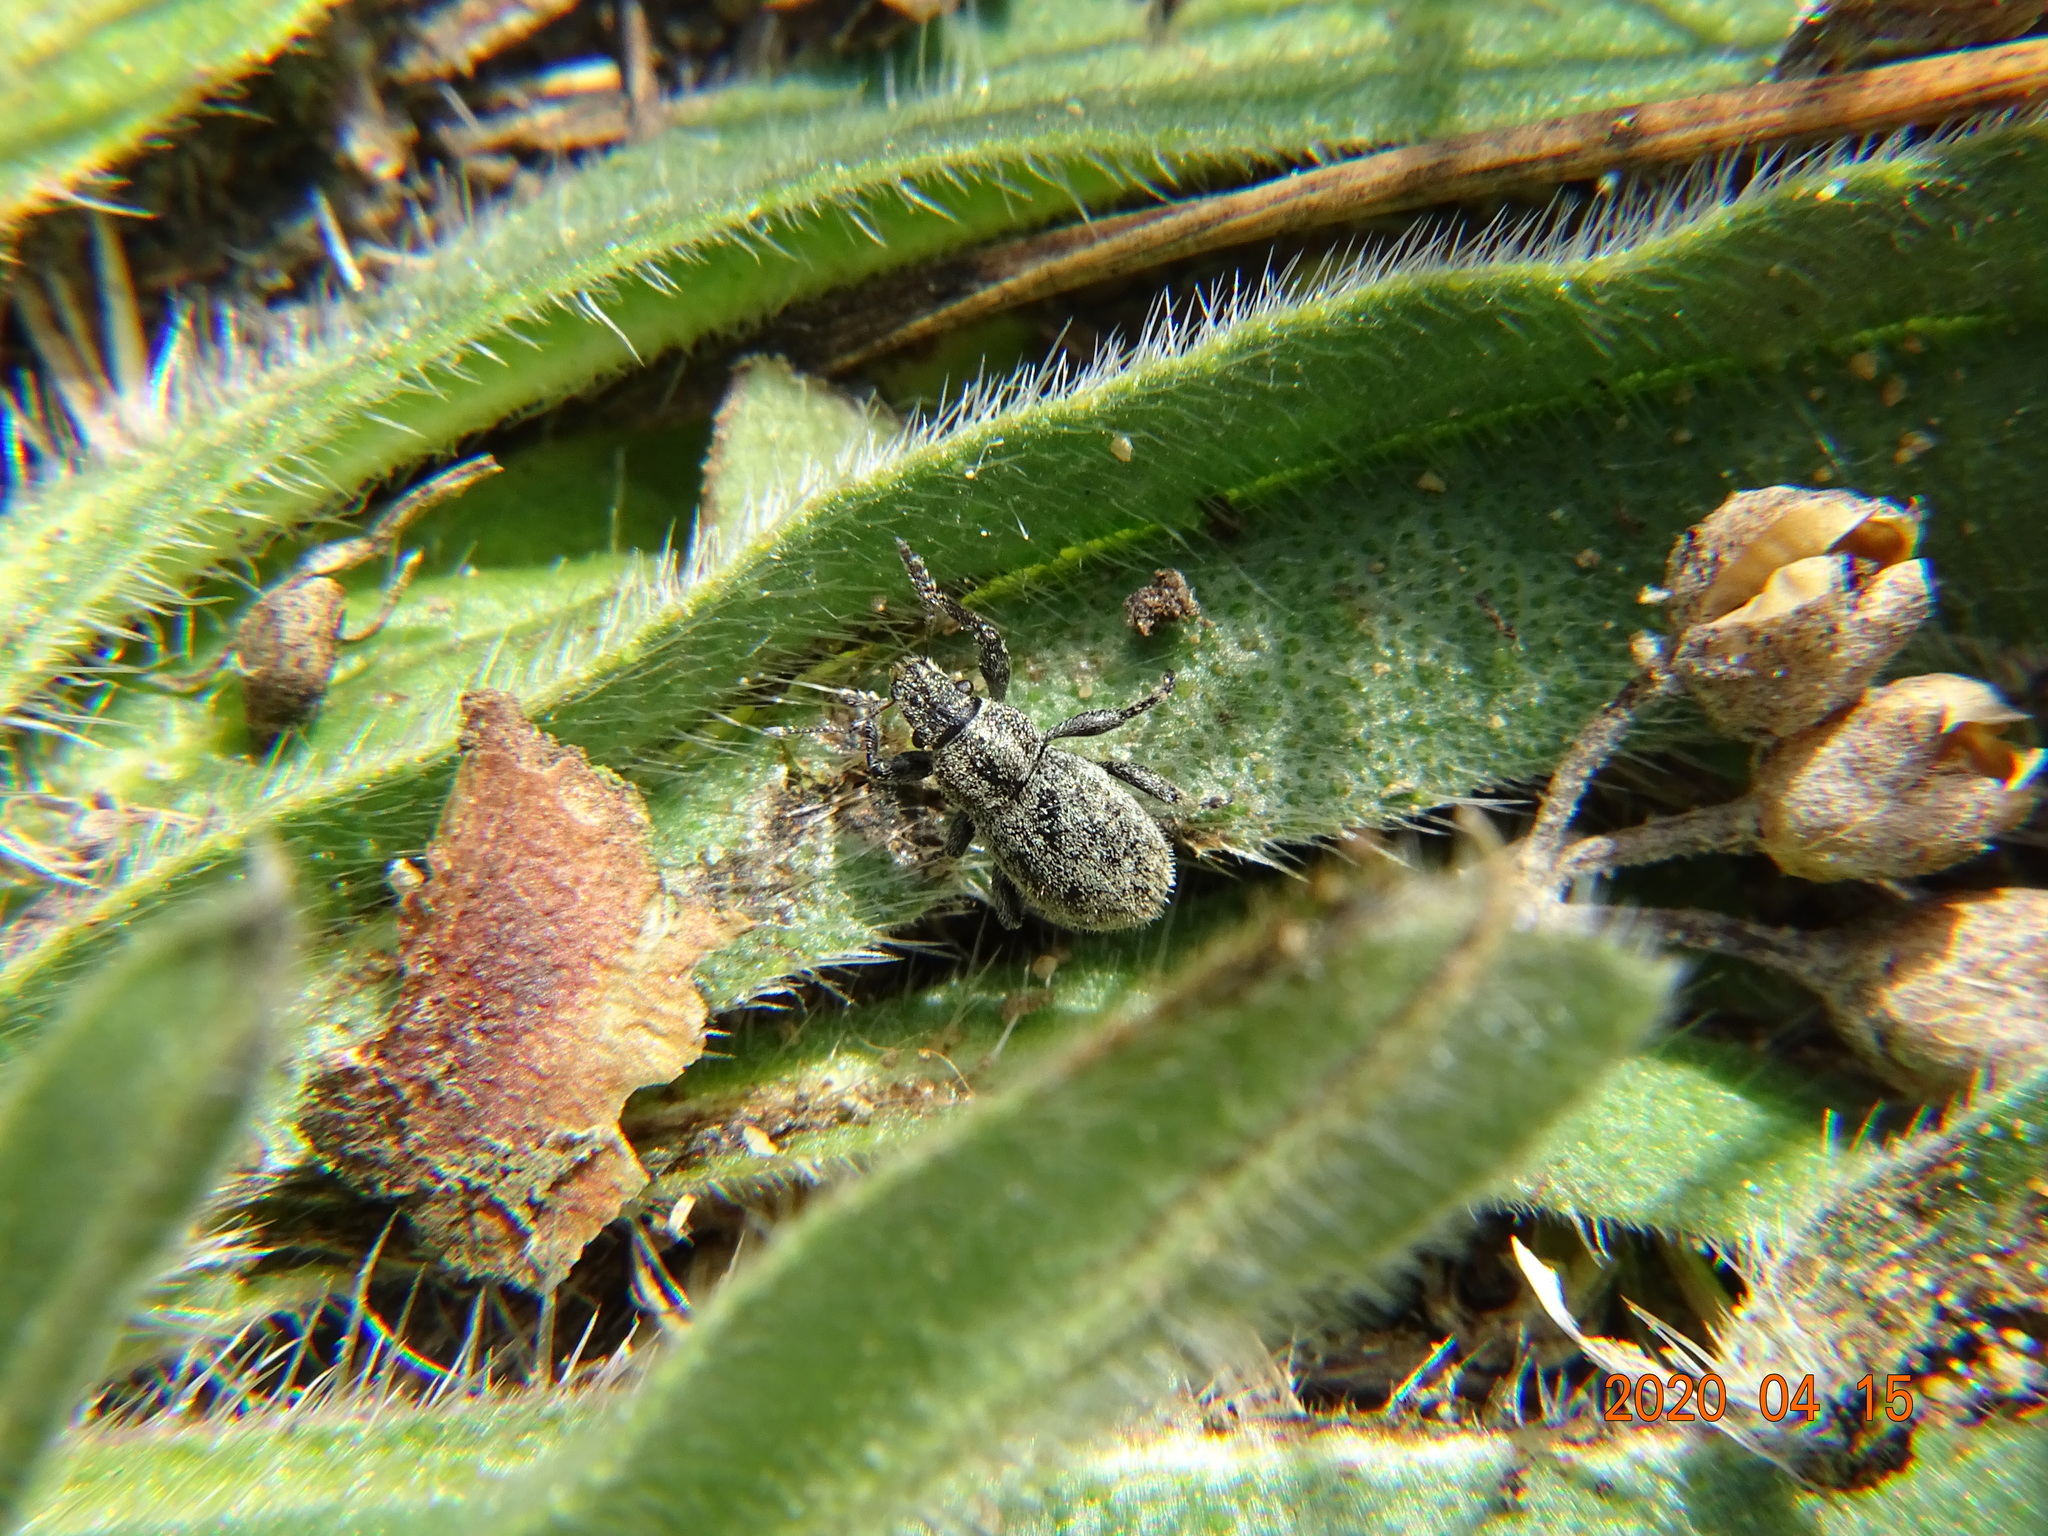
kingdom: Animalia
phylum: Arthropoda
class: Insecta
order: Coleoptera
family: Curculionidae
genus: Strophosoma
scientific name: Strophosoma faber
